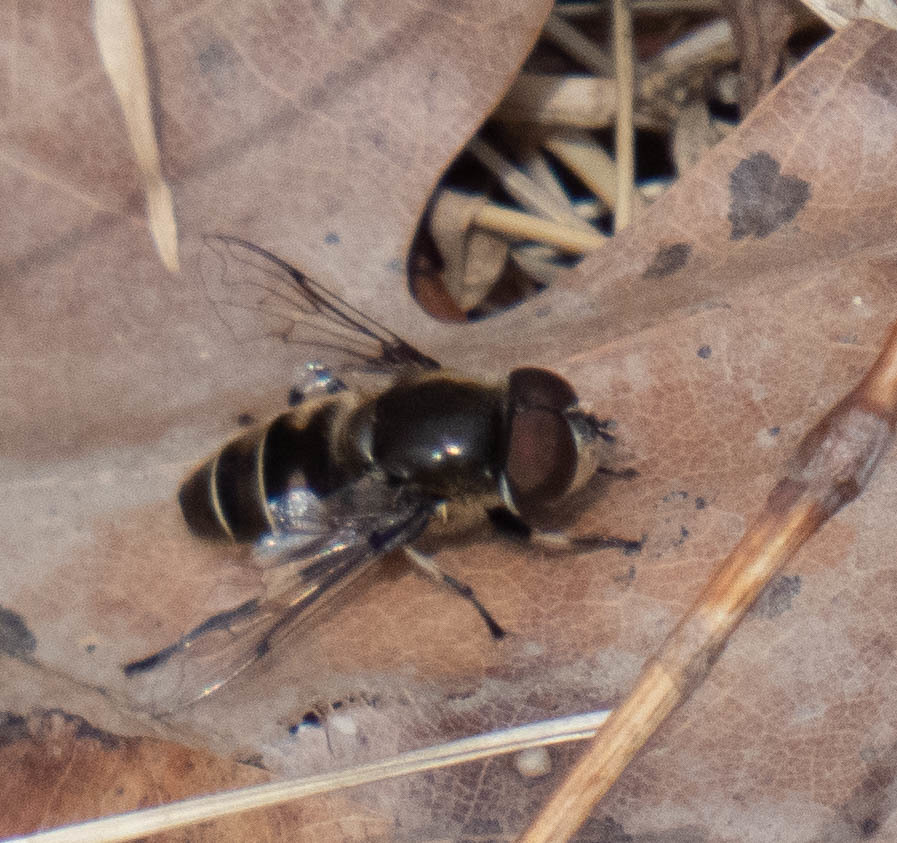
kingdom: Animalia
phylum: Arthropoda
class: Insecta
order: Diptera
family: Syrphidae
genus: Eristalis
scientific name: Eristalis dimidiata
